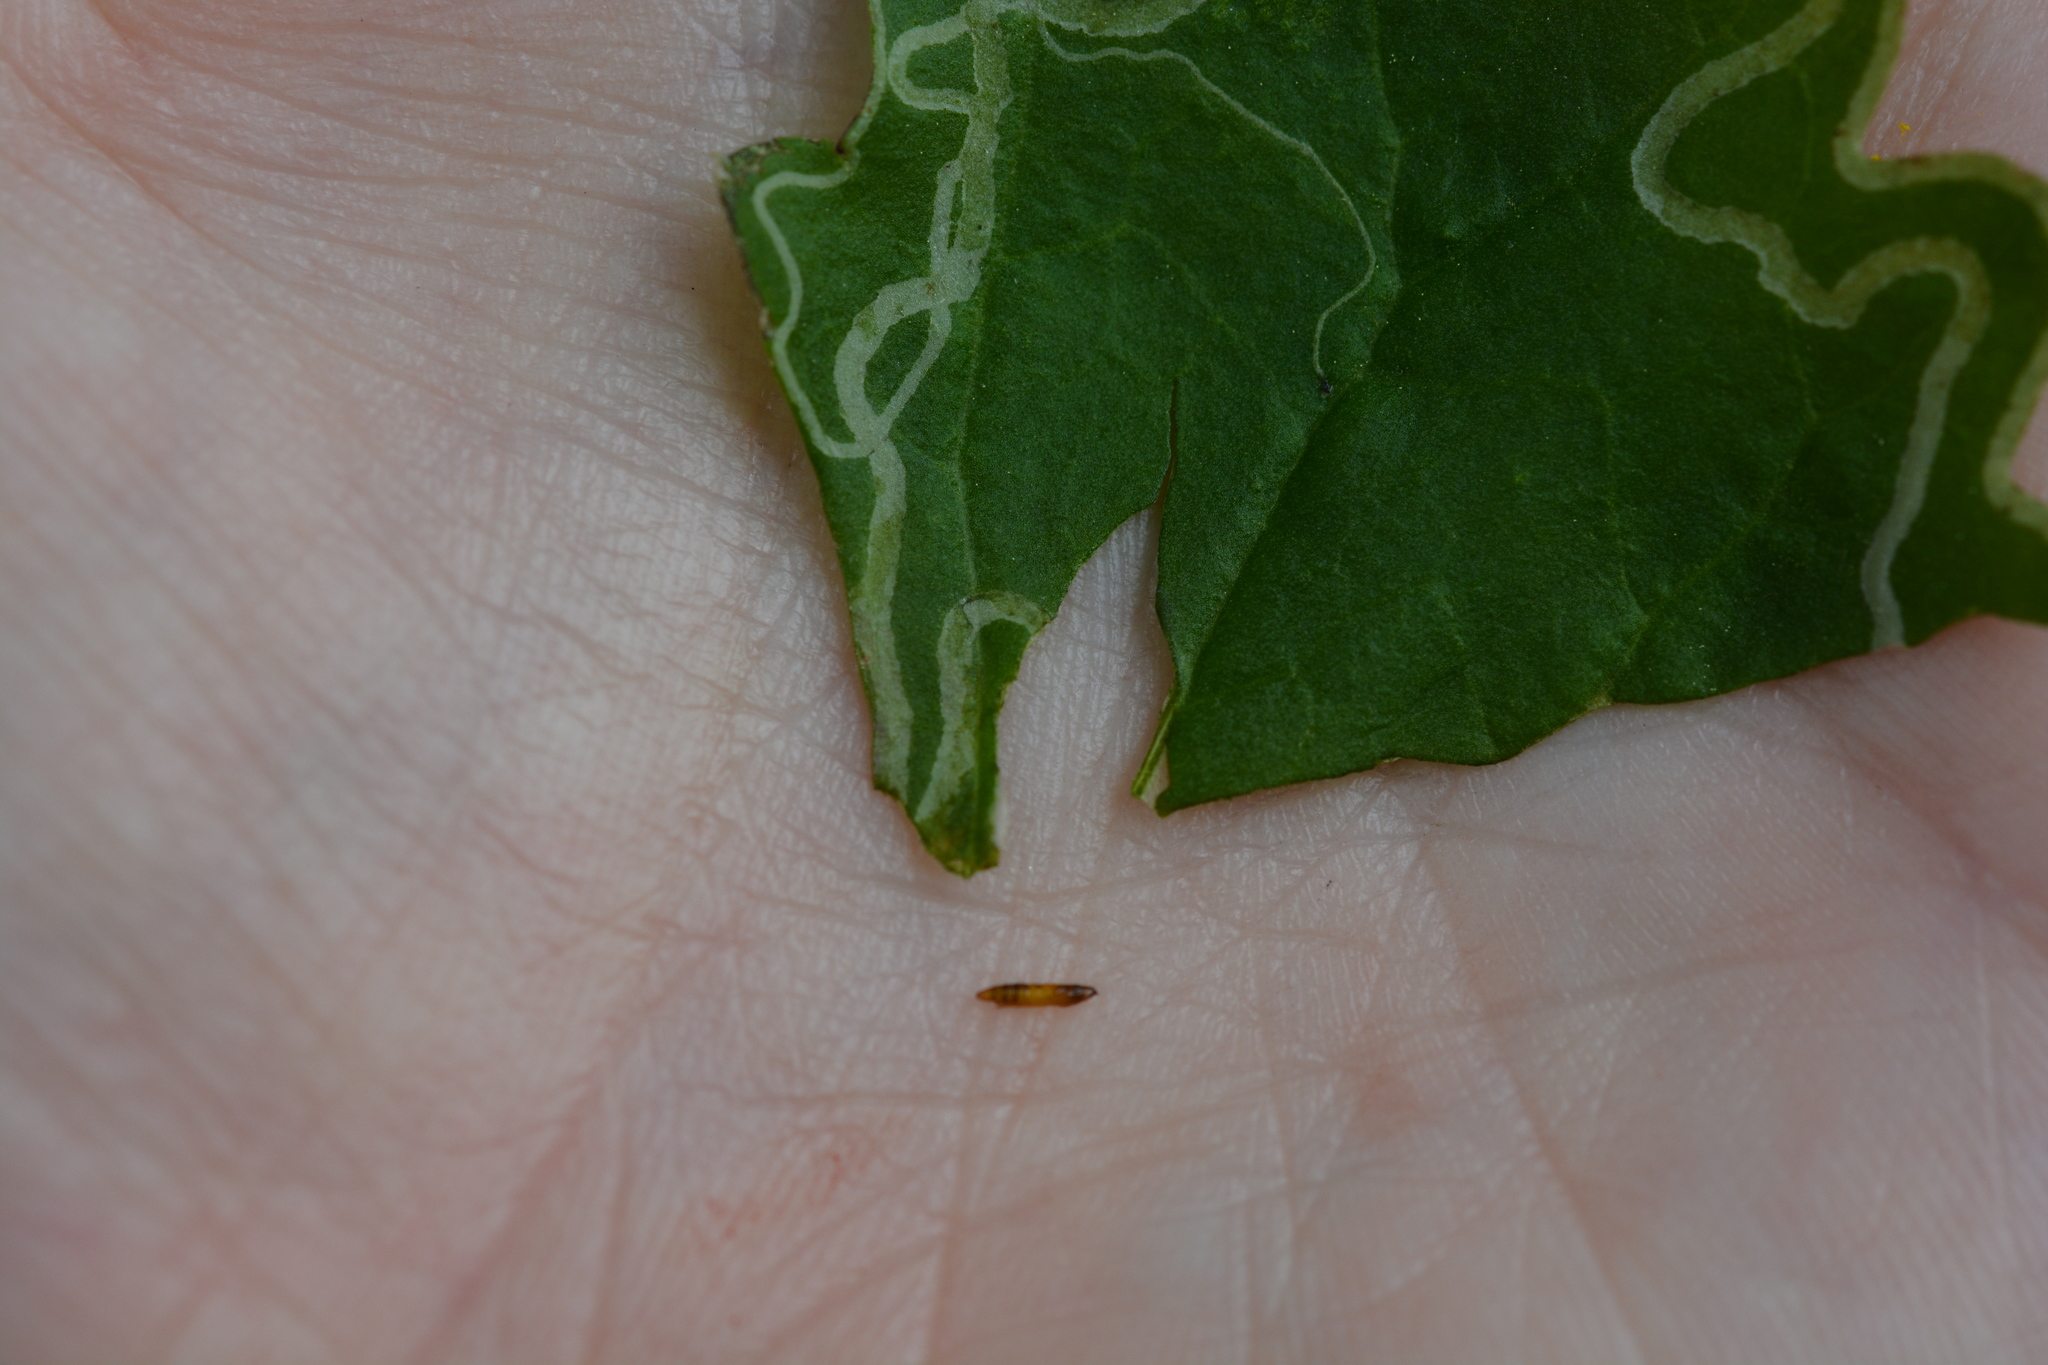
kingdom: Animalia
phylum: Arthropoda
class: Insecta
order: Lepidoptera
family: Gracillariidae
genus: Phyllocnistis
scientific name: Phyllocnistis insignis
